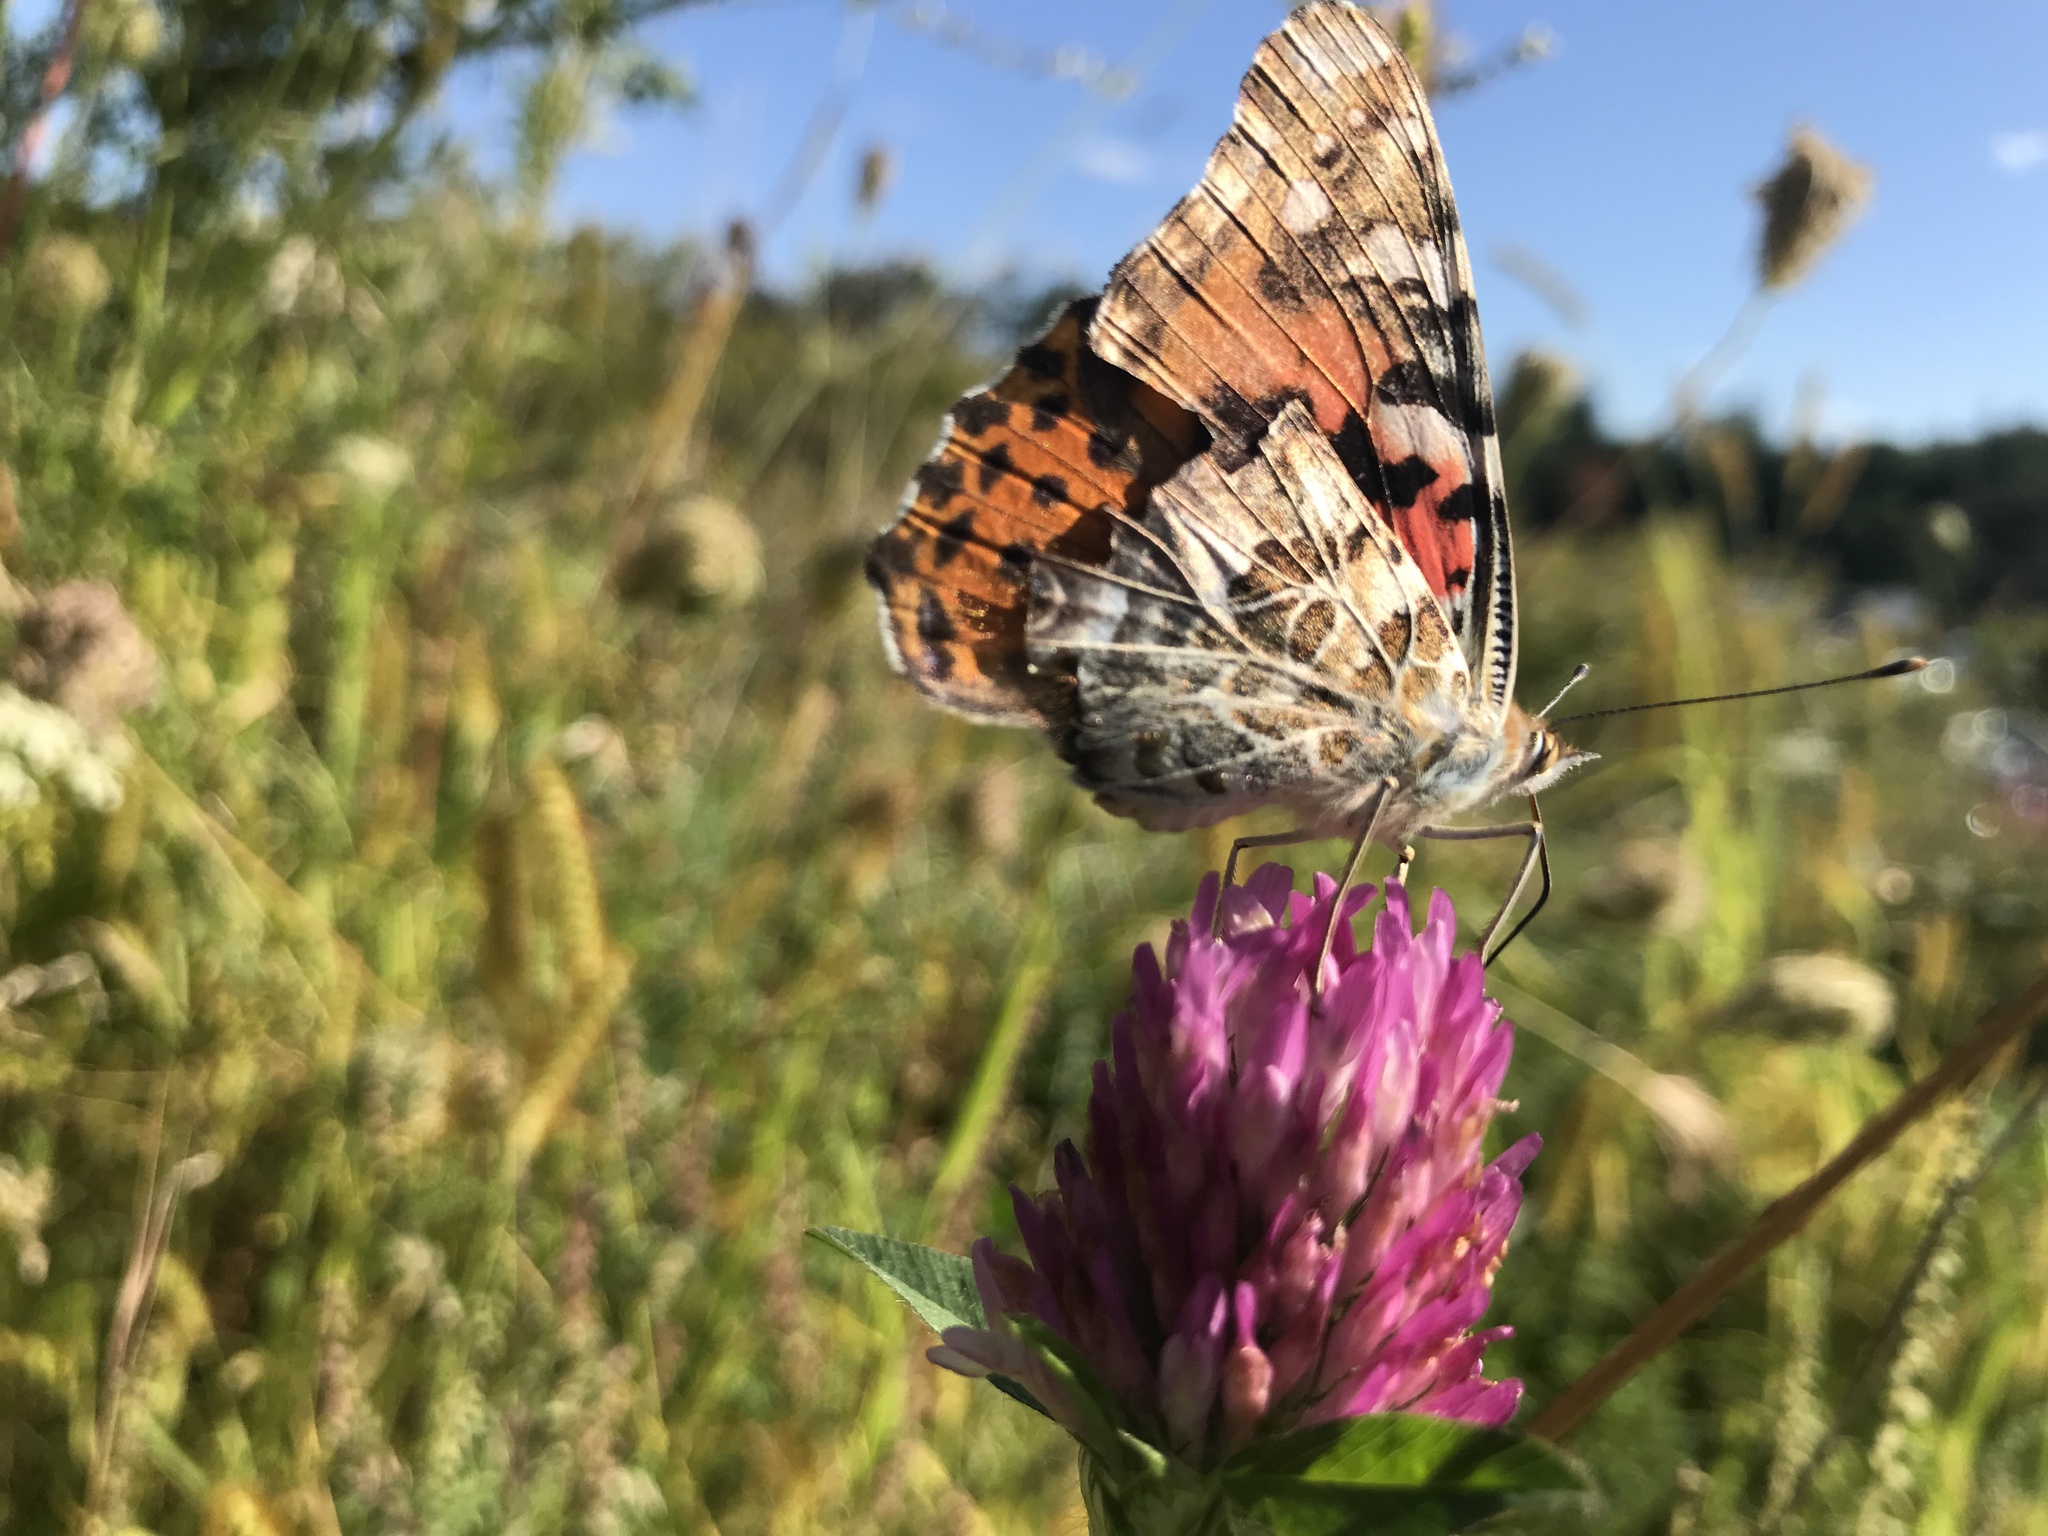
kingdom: Animalia
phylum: Arthropoda
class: Insecta
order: Lepidoptera
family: Nymphalidae
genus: Vanessa
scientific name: Vanessa cardui
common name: Painted lady
